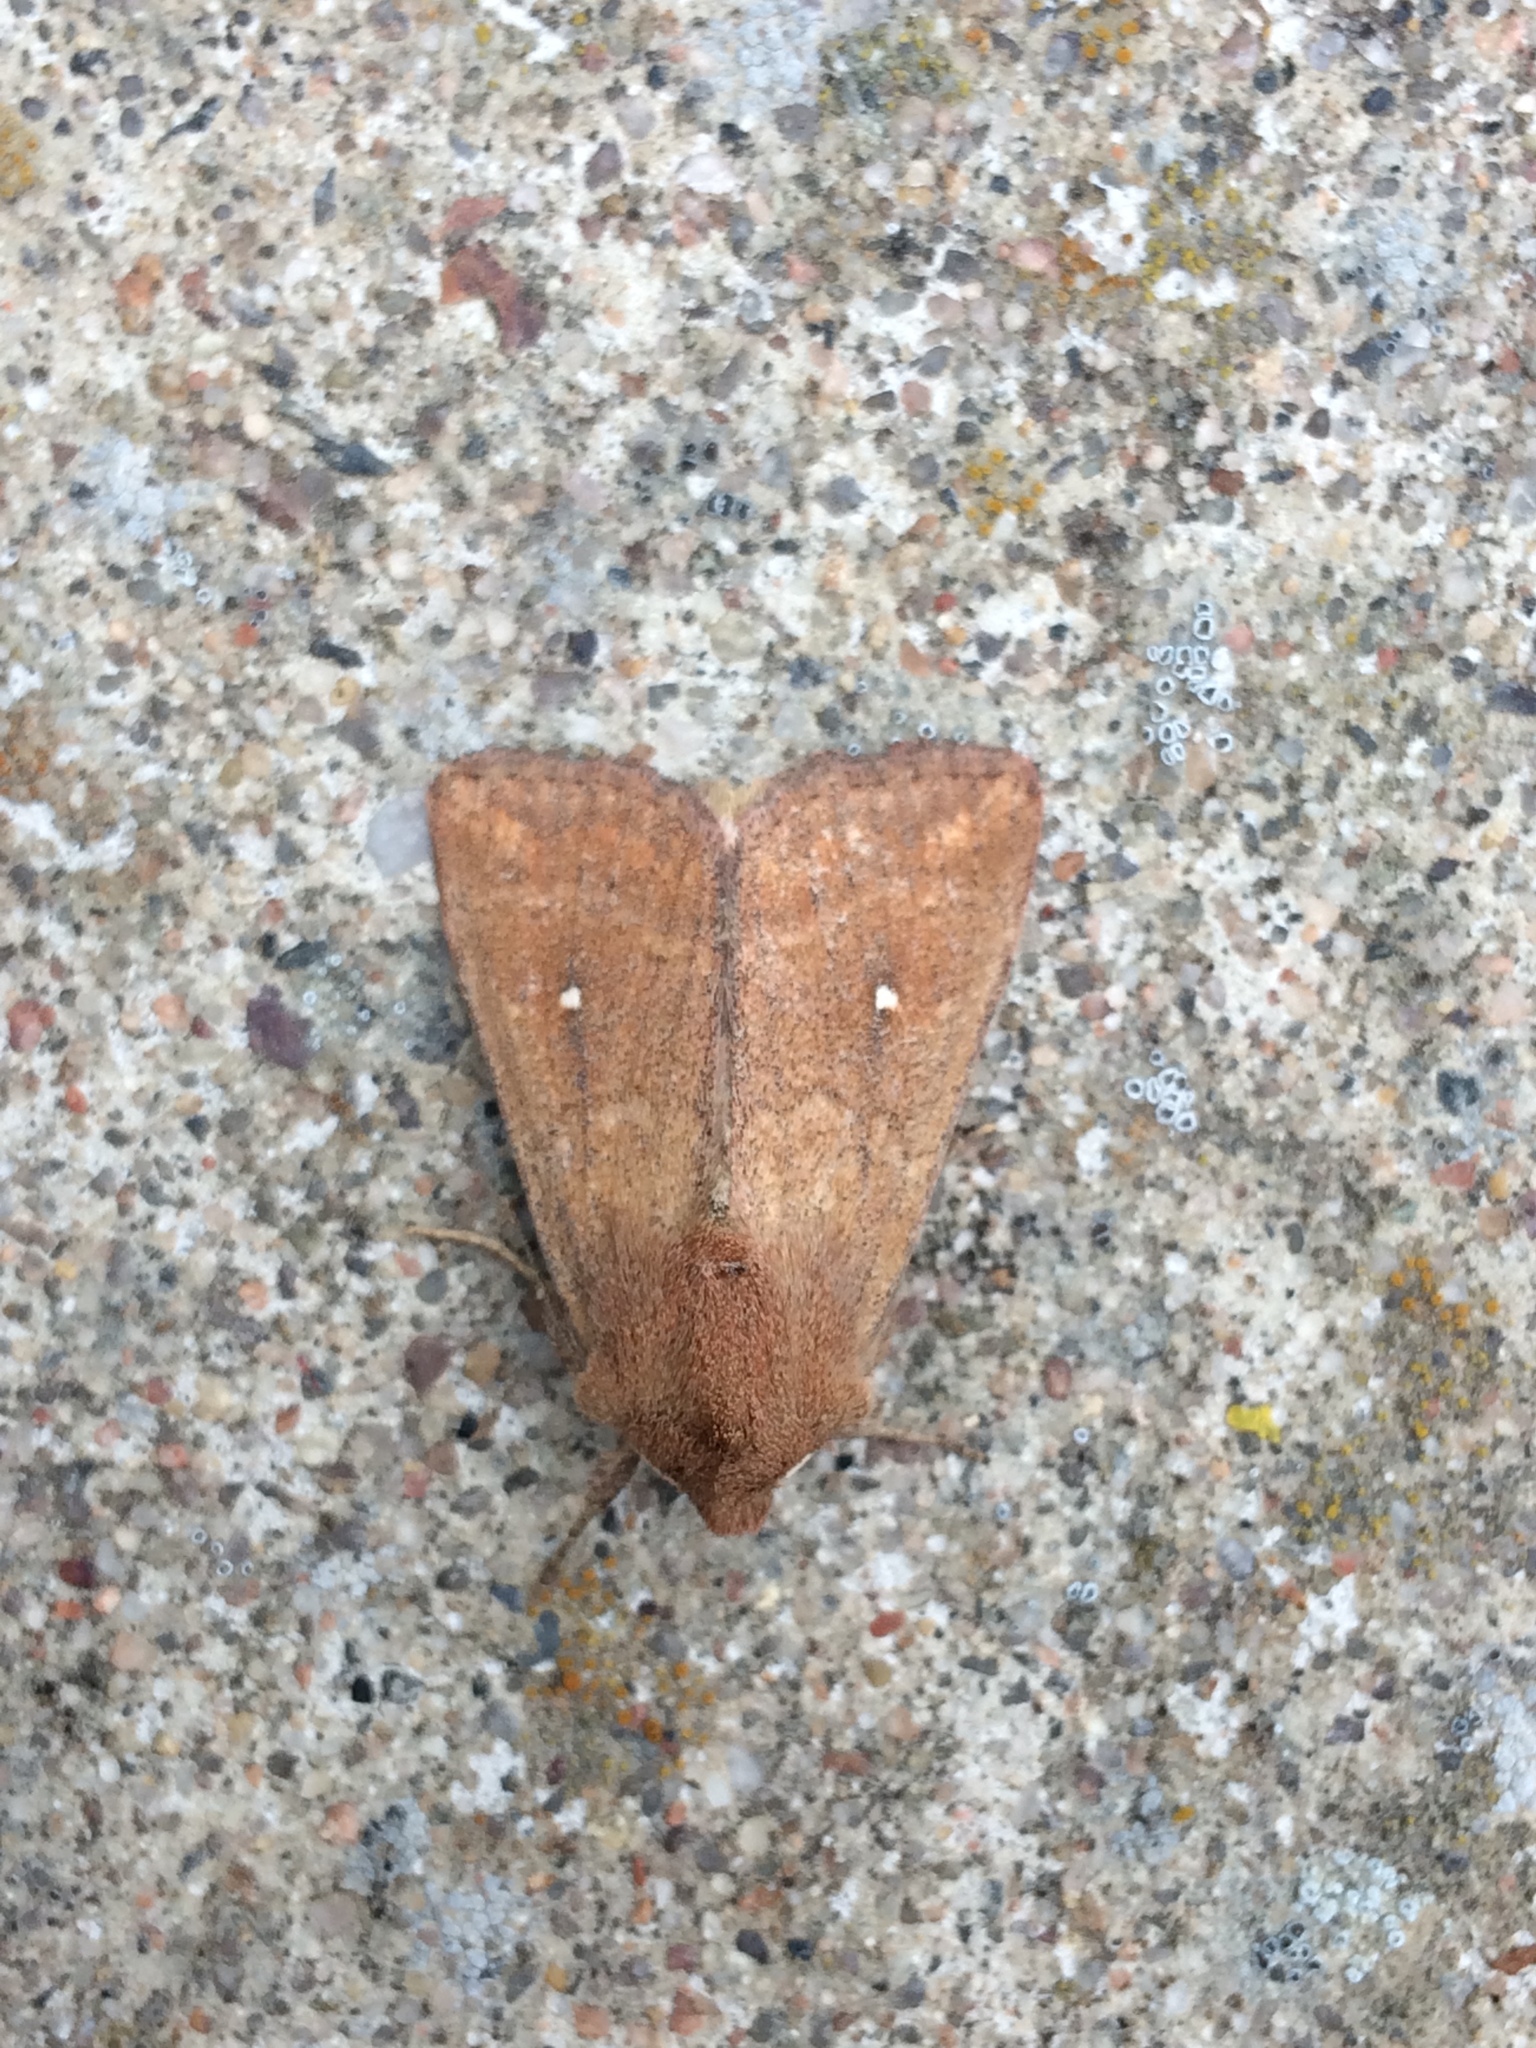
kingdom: Animalia
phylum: Arthropoda
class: Insecta
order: Lepidoptera
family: Noctuidae
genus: Mythimna
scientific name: Mythimna albipuncta
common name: White-point
